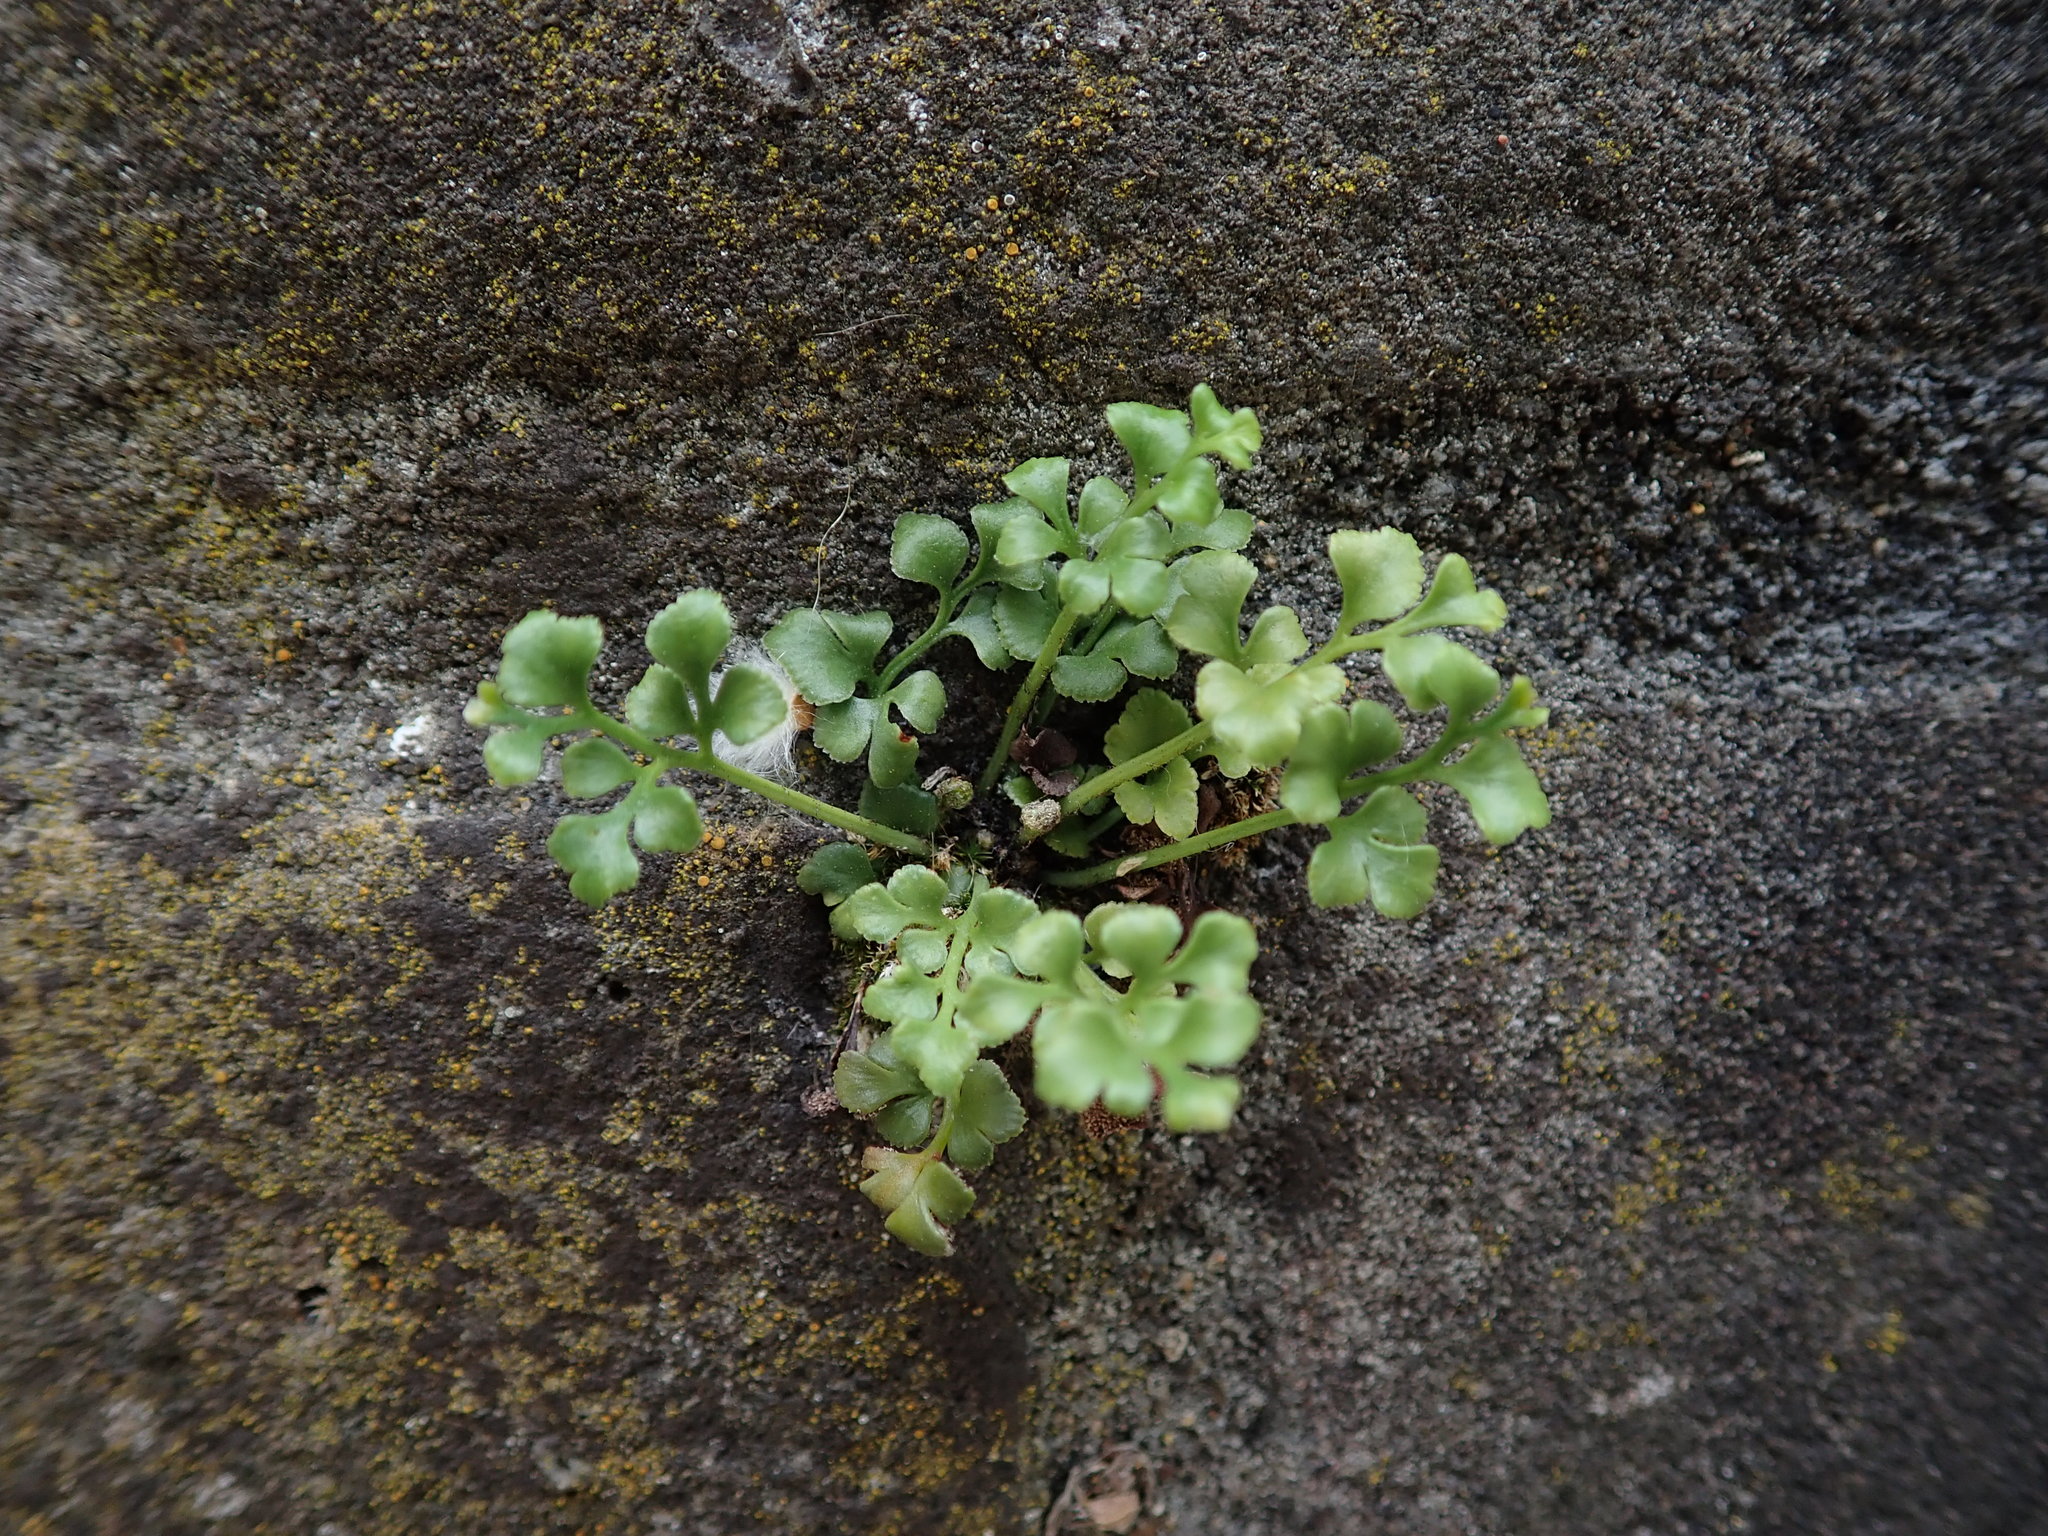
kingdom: Plantae
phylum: Tracheophyta
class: Polypodiopsida
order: Polypodiales
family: Aspleniaceae
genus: Asplenium
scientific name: Asplenium ruta-muraria
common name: Wall-rue
